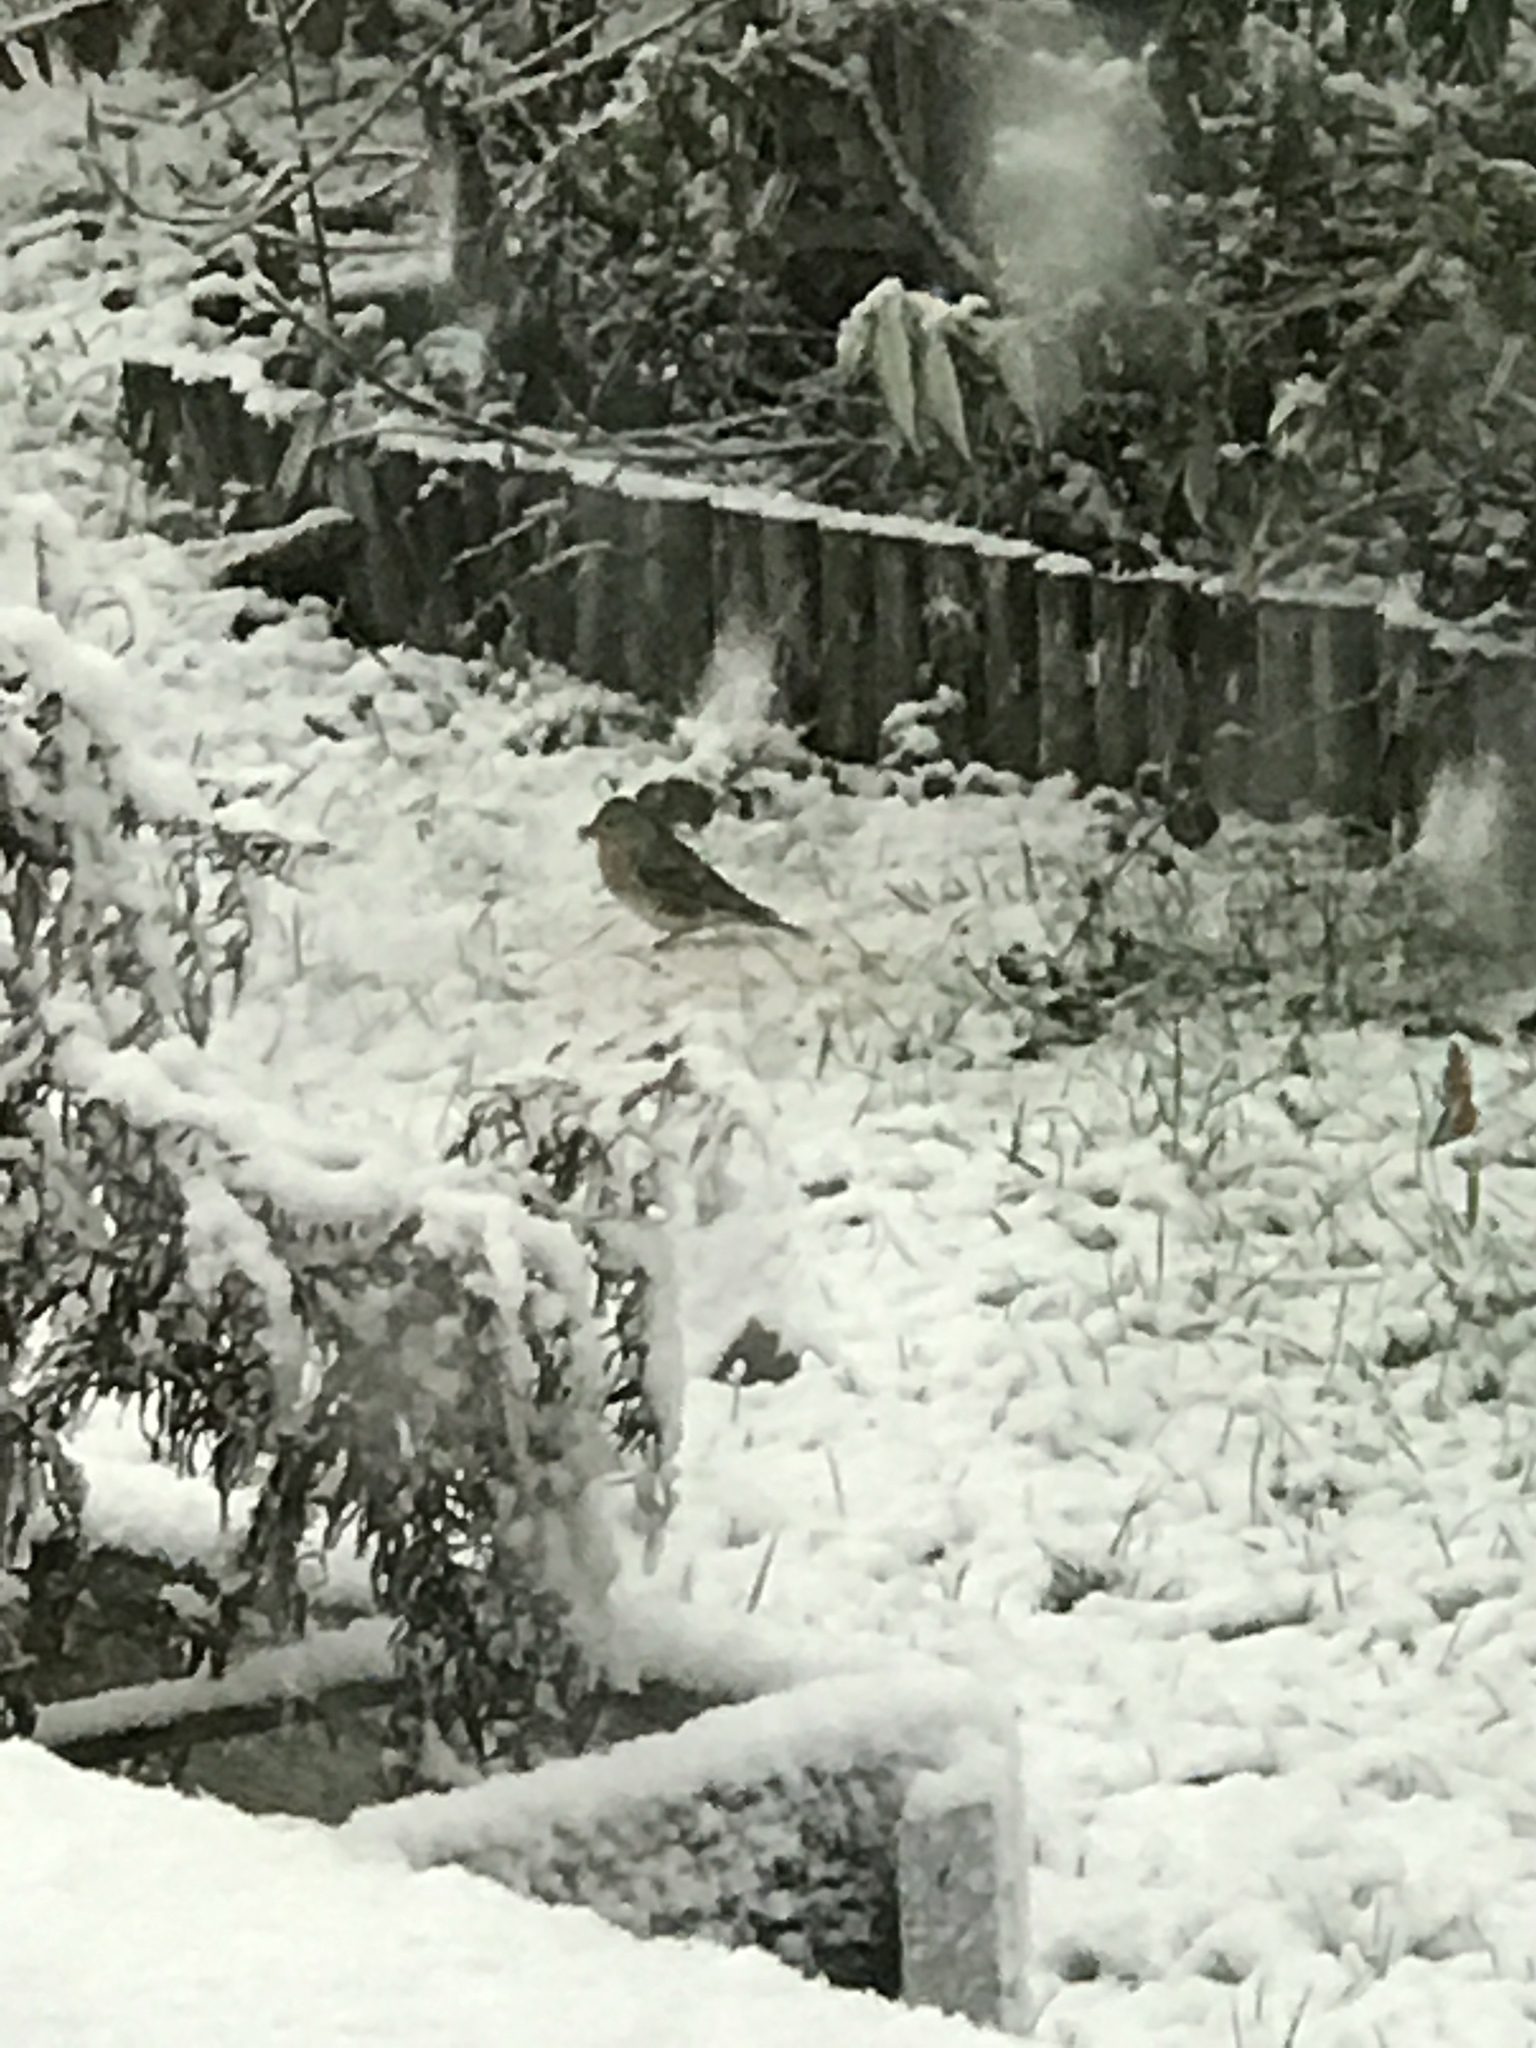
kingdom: Animalia
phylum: Chordata
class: Aves
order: Passeriformes
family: Fringillidae
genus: Fringilla
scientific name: Fringilla montifringilla
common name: Brambling
